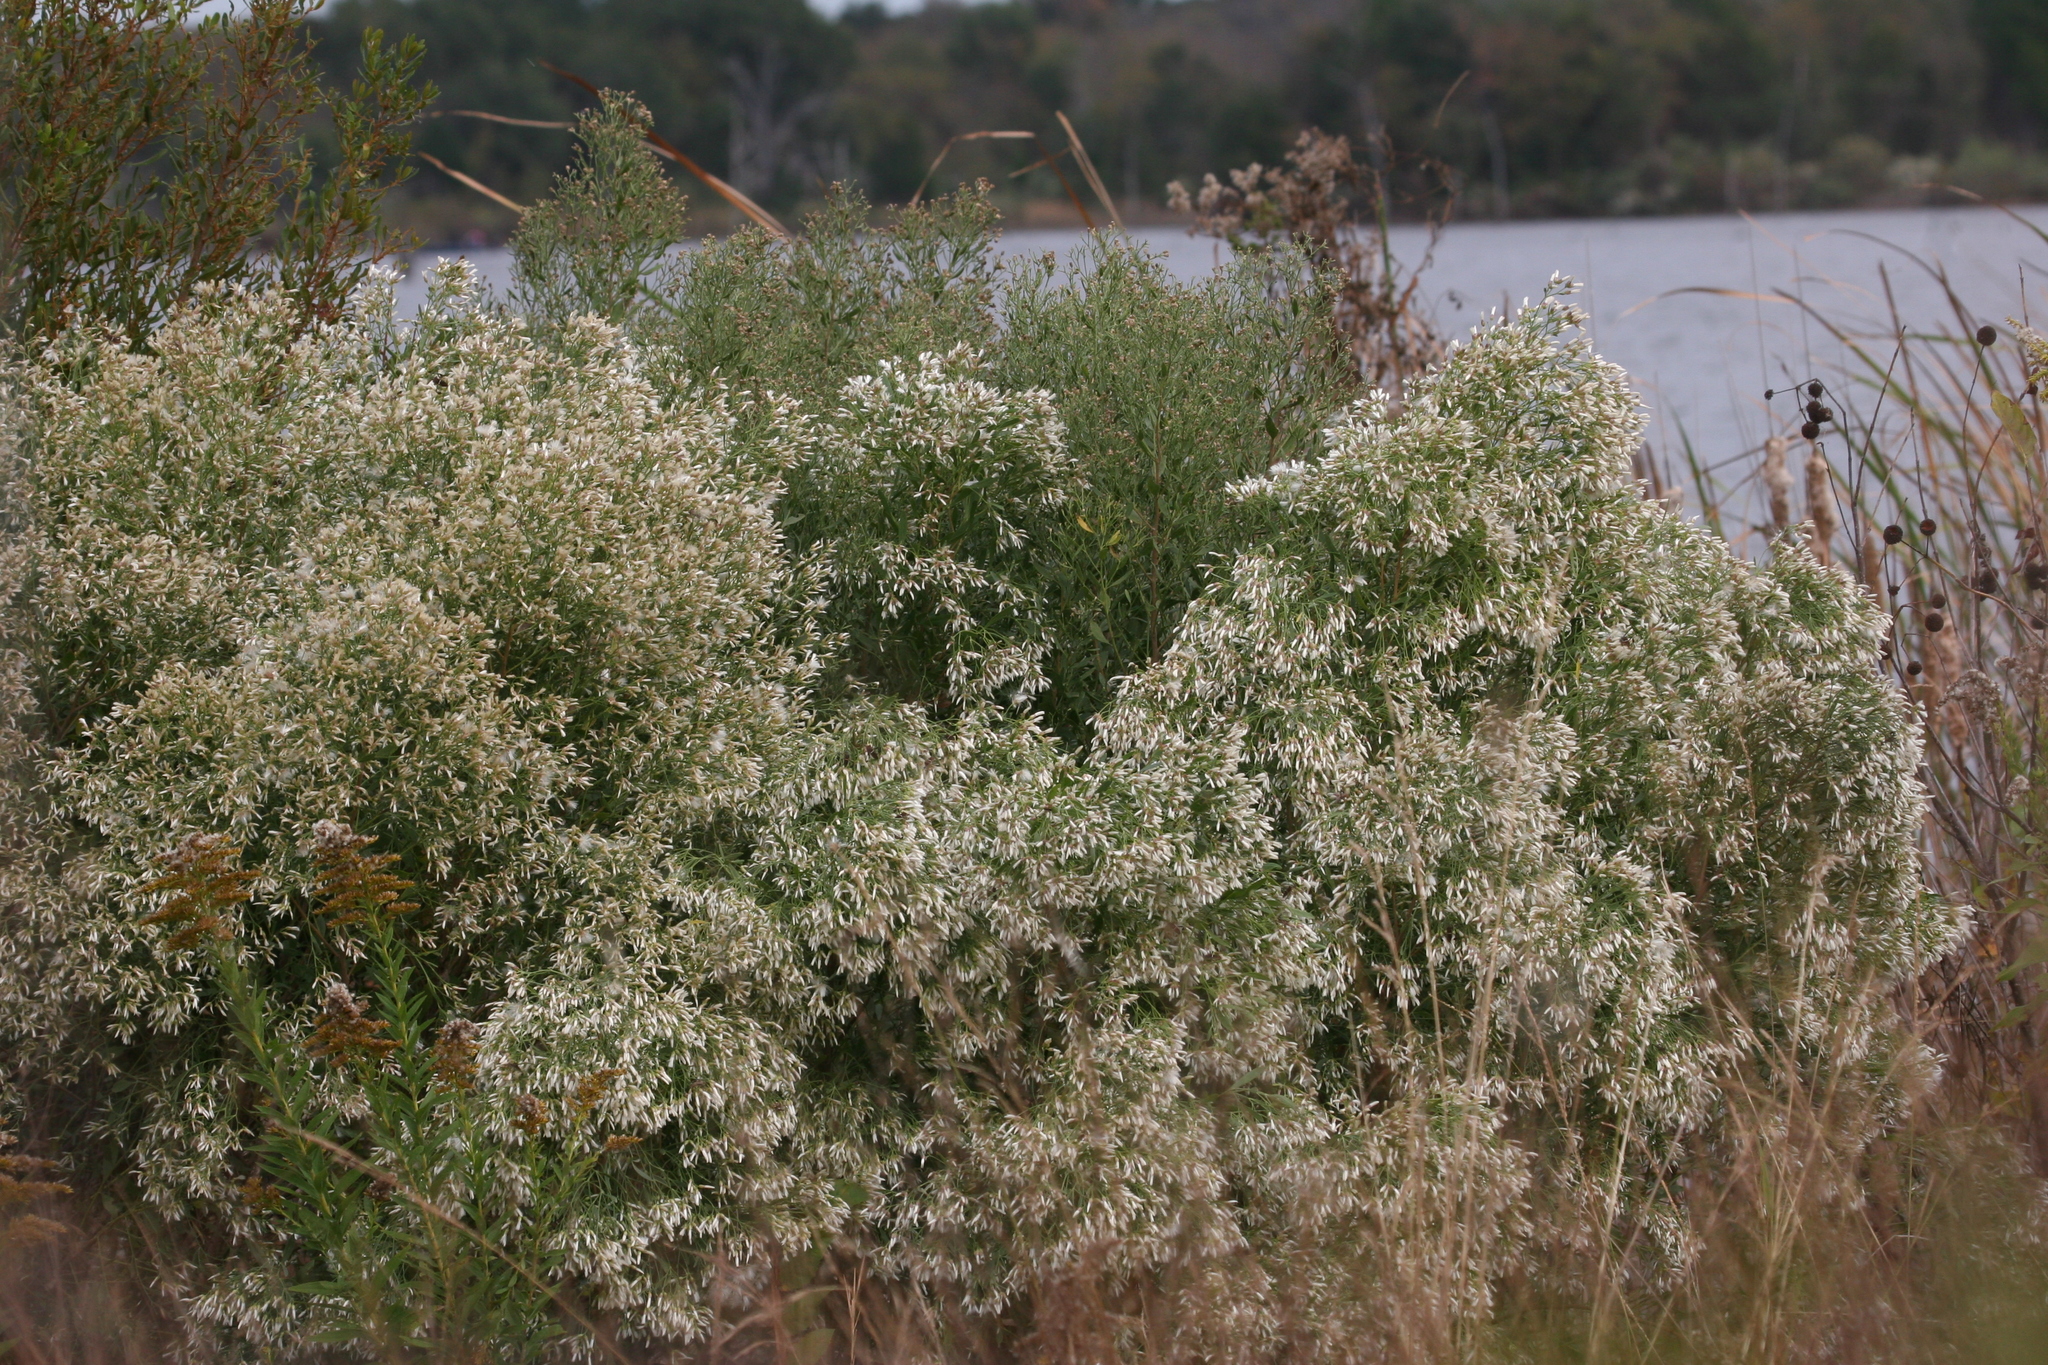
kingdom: Plantae
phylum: Tracheophyta
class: Magnoliopsida
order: Asterales
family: Asteraceae
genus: Baccharis
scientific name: Baccharis neglecta
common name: Roosevelt-weed
